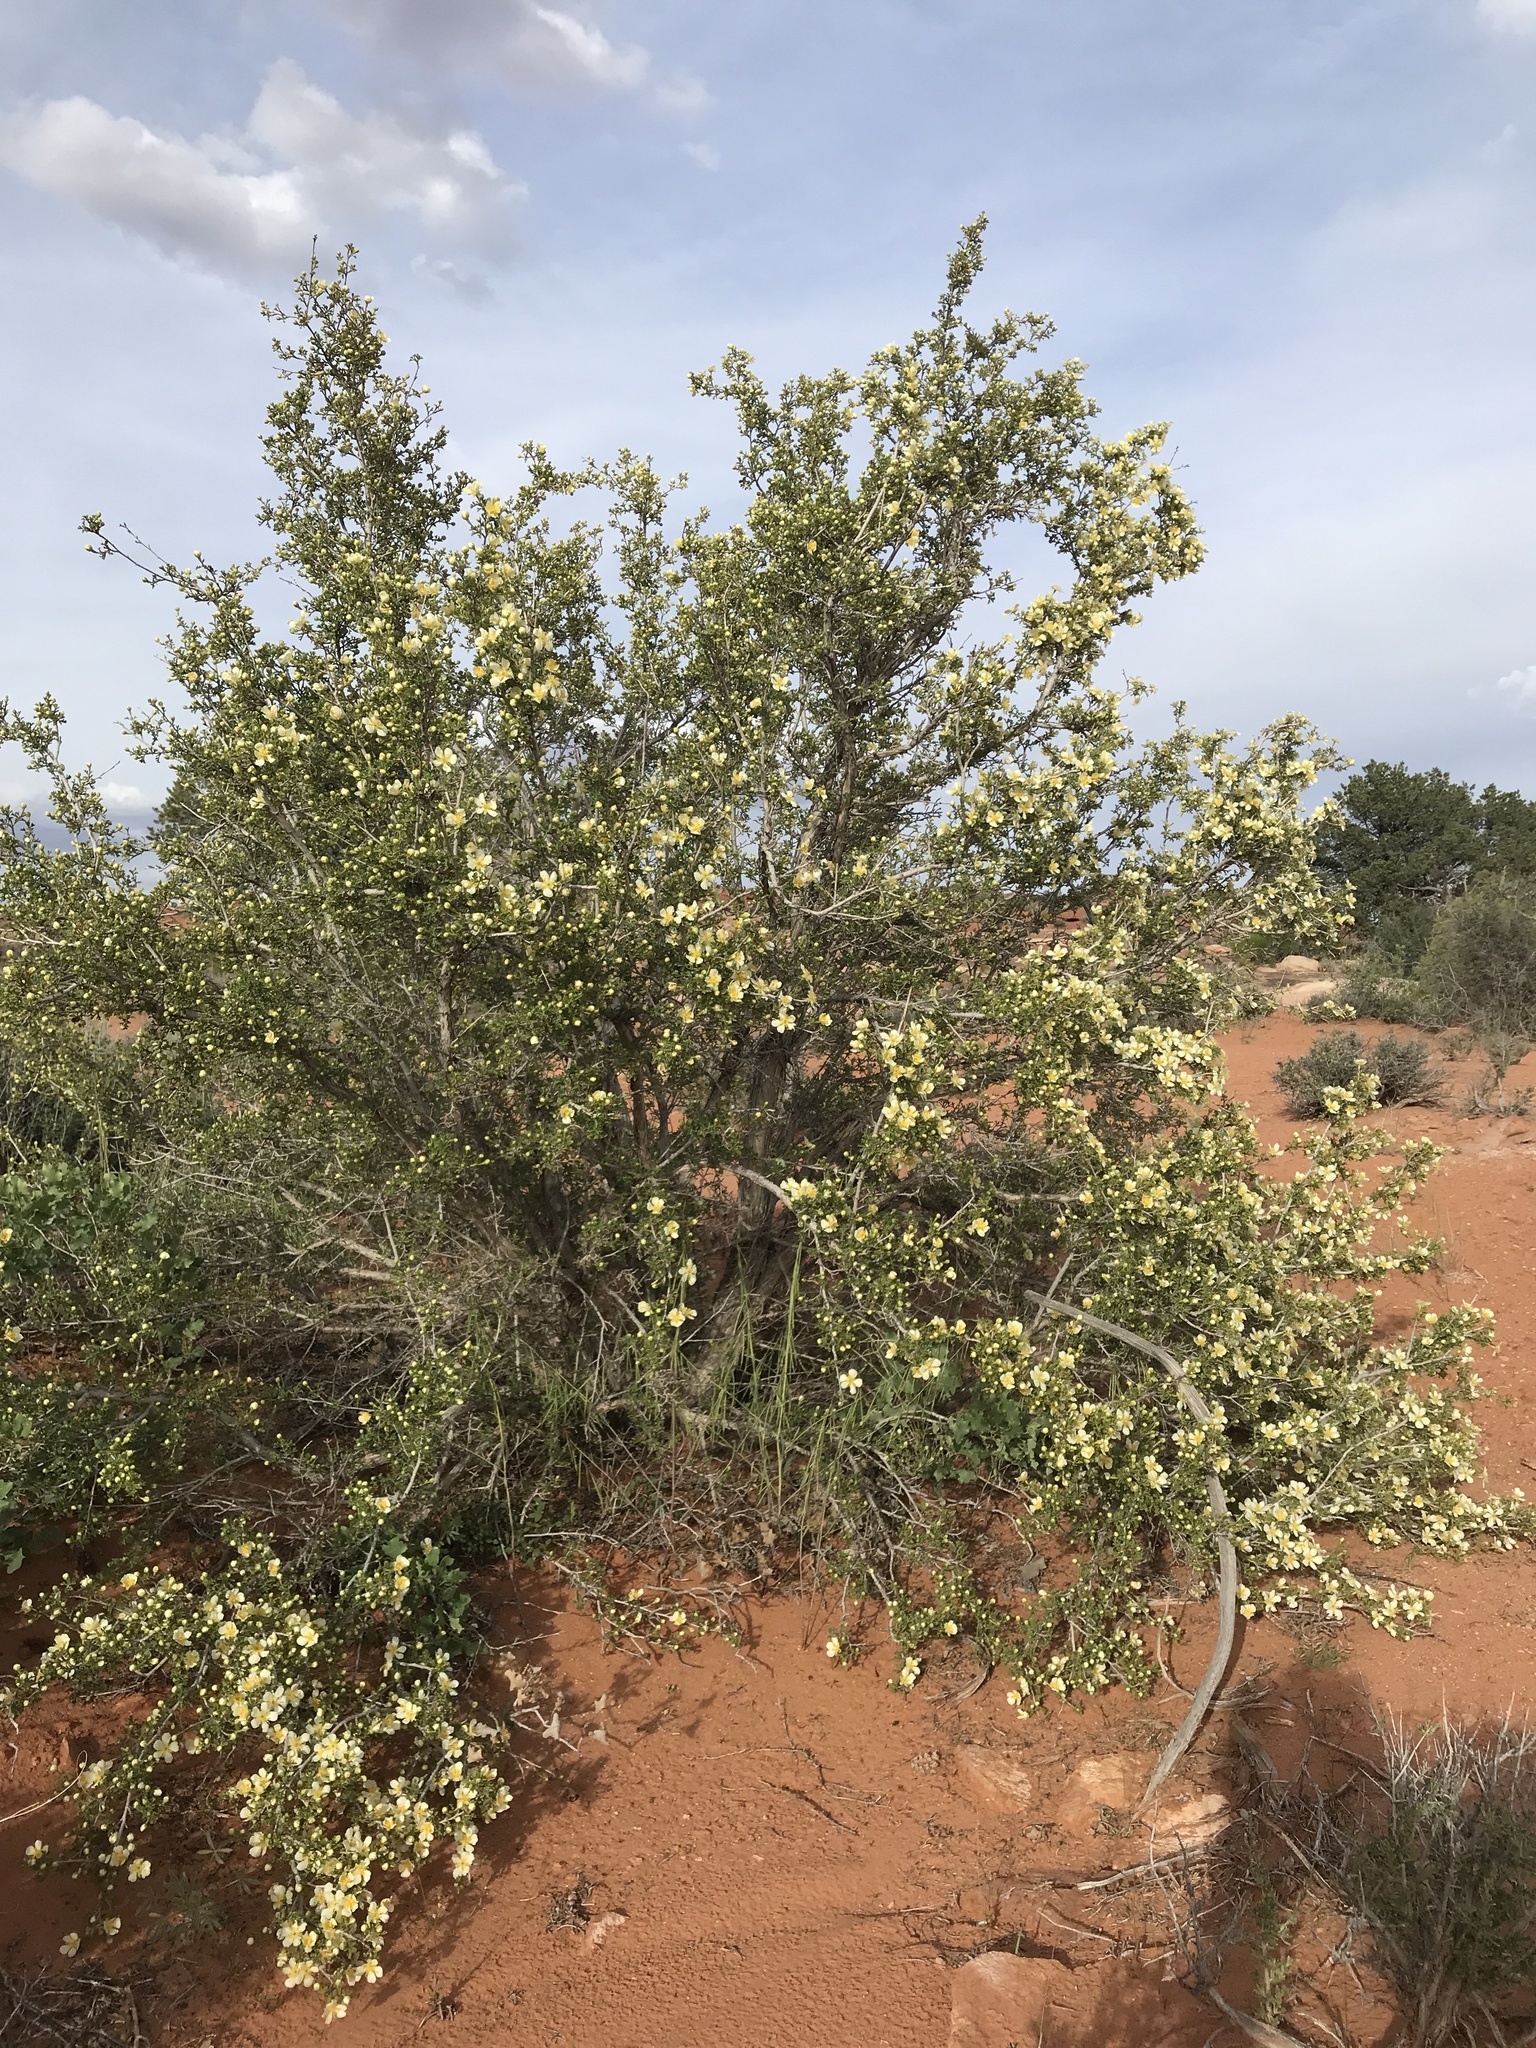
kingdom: Plantae
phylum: Tracheophyta
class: Magnoliopsida
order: Rosales
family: Rosaceae
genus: Purshia
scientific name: Purshia stansburiana
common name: Stansbury's cliffrose
